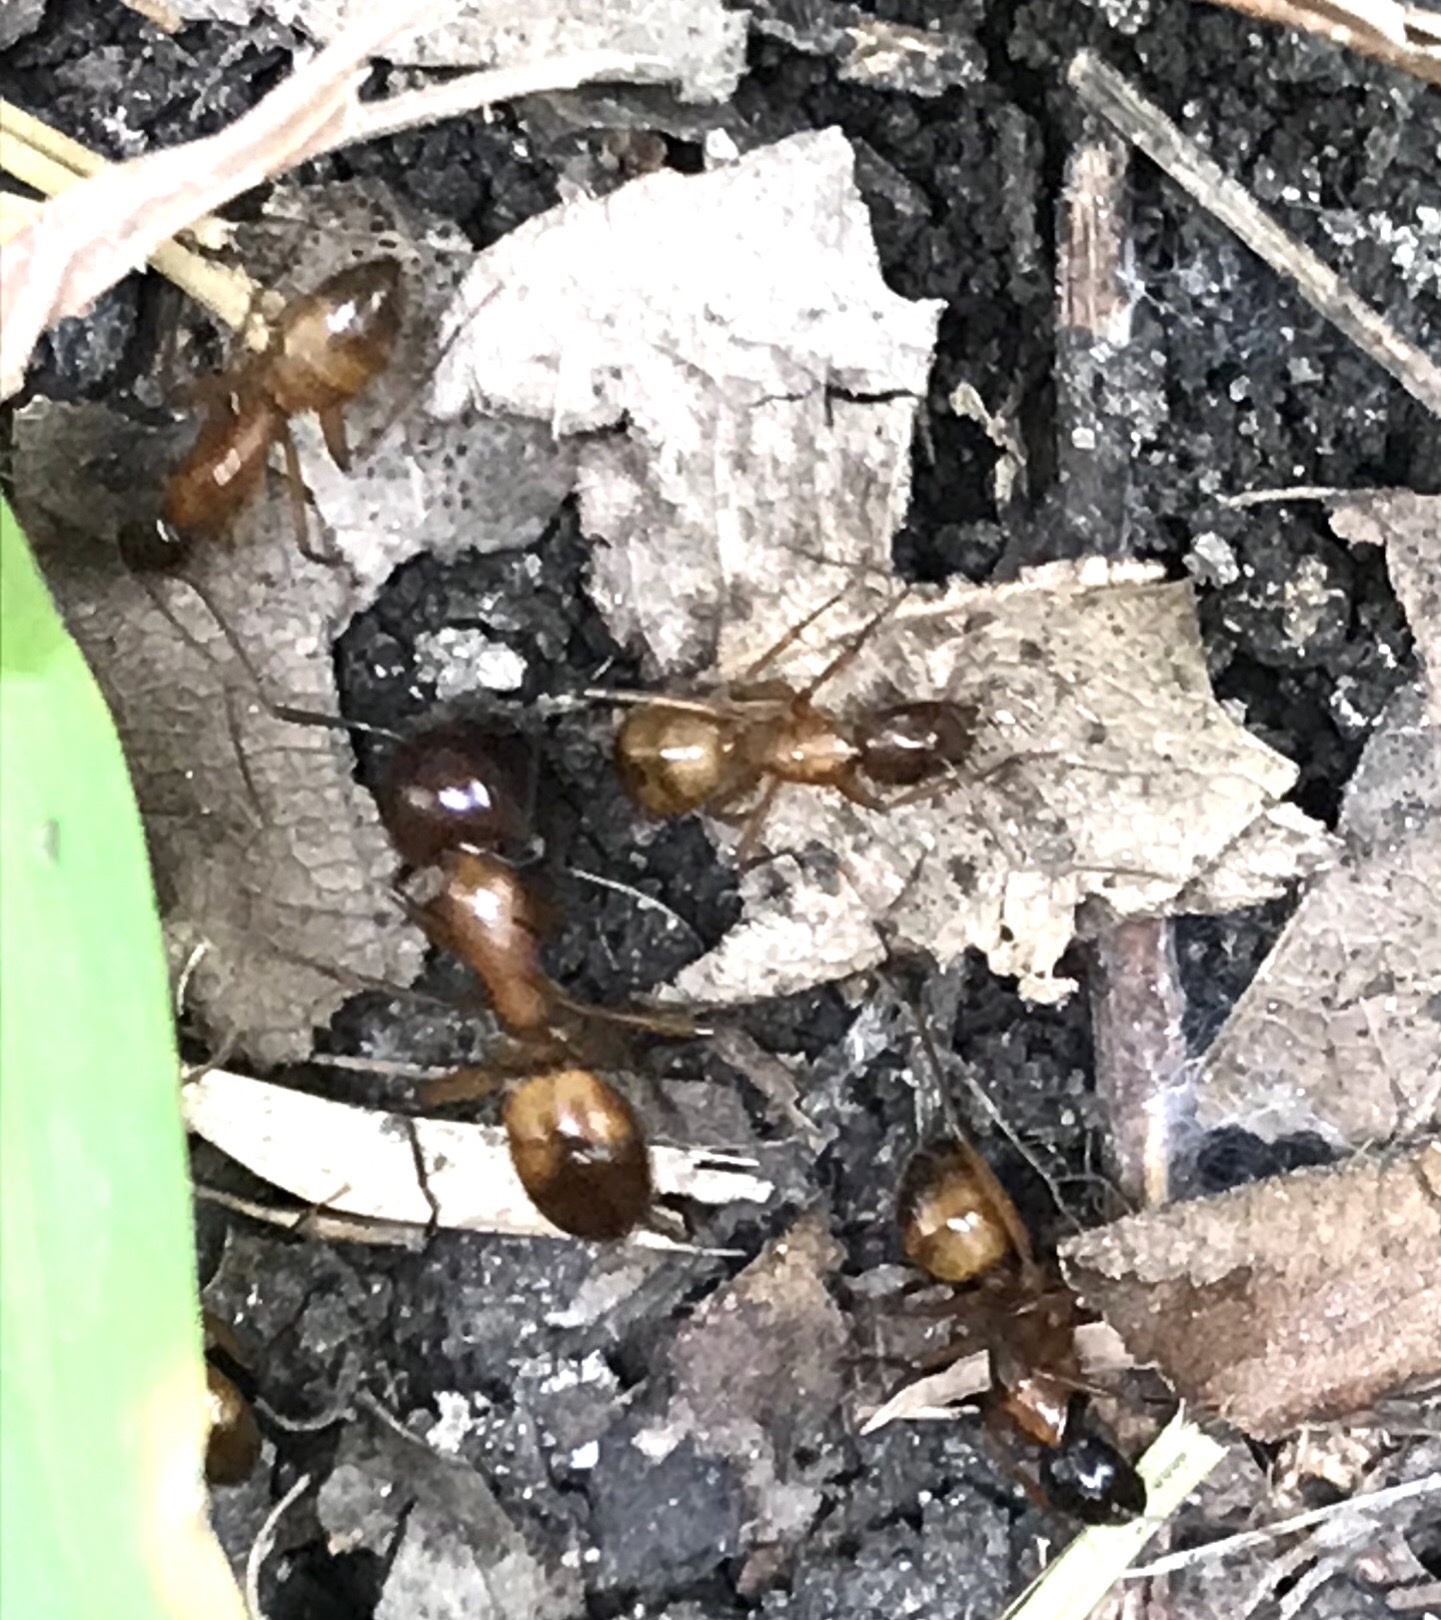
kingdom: Animalia
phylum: Arthropoda
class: Insecta
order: Hymenoptera
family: Formicidae
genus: Camponotus
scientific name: Camponotus americanus
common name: American carpenter ant
